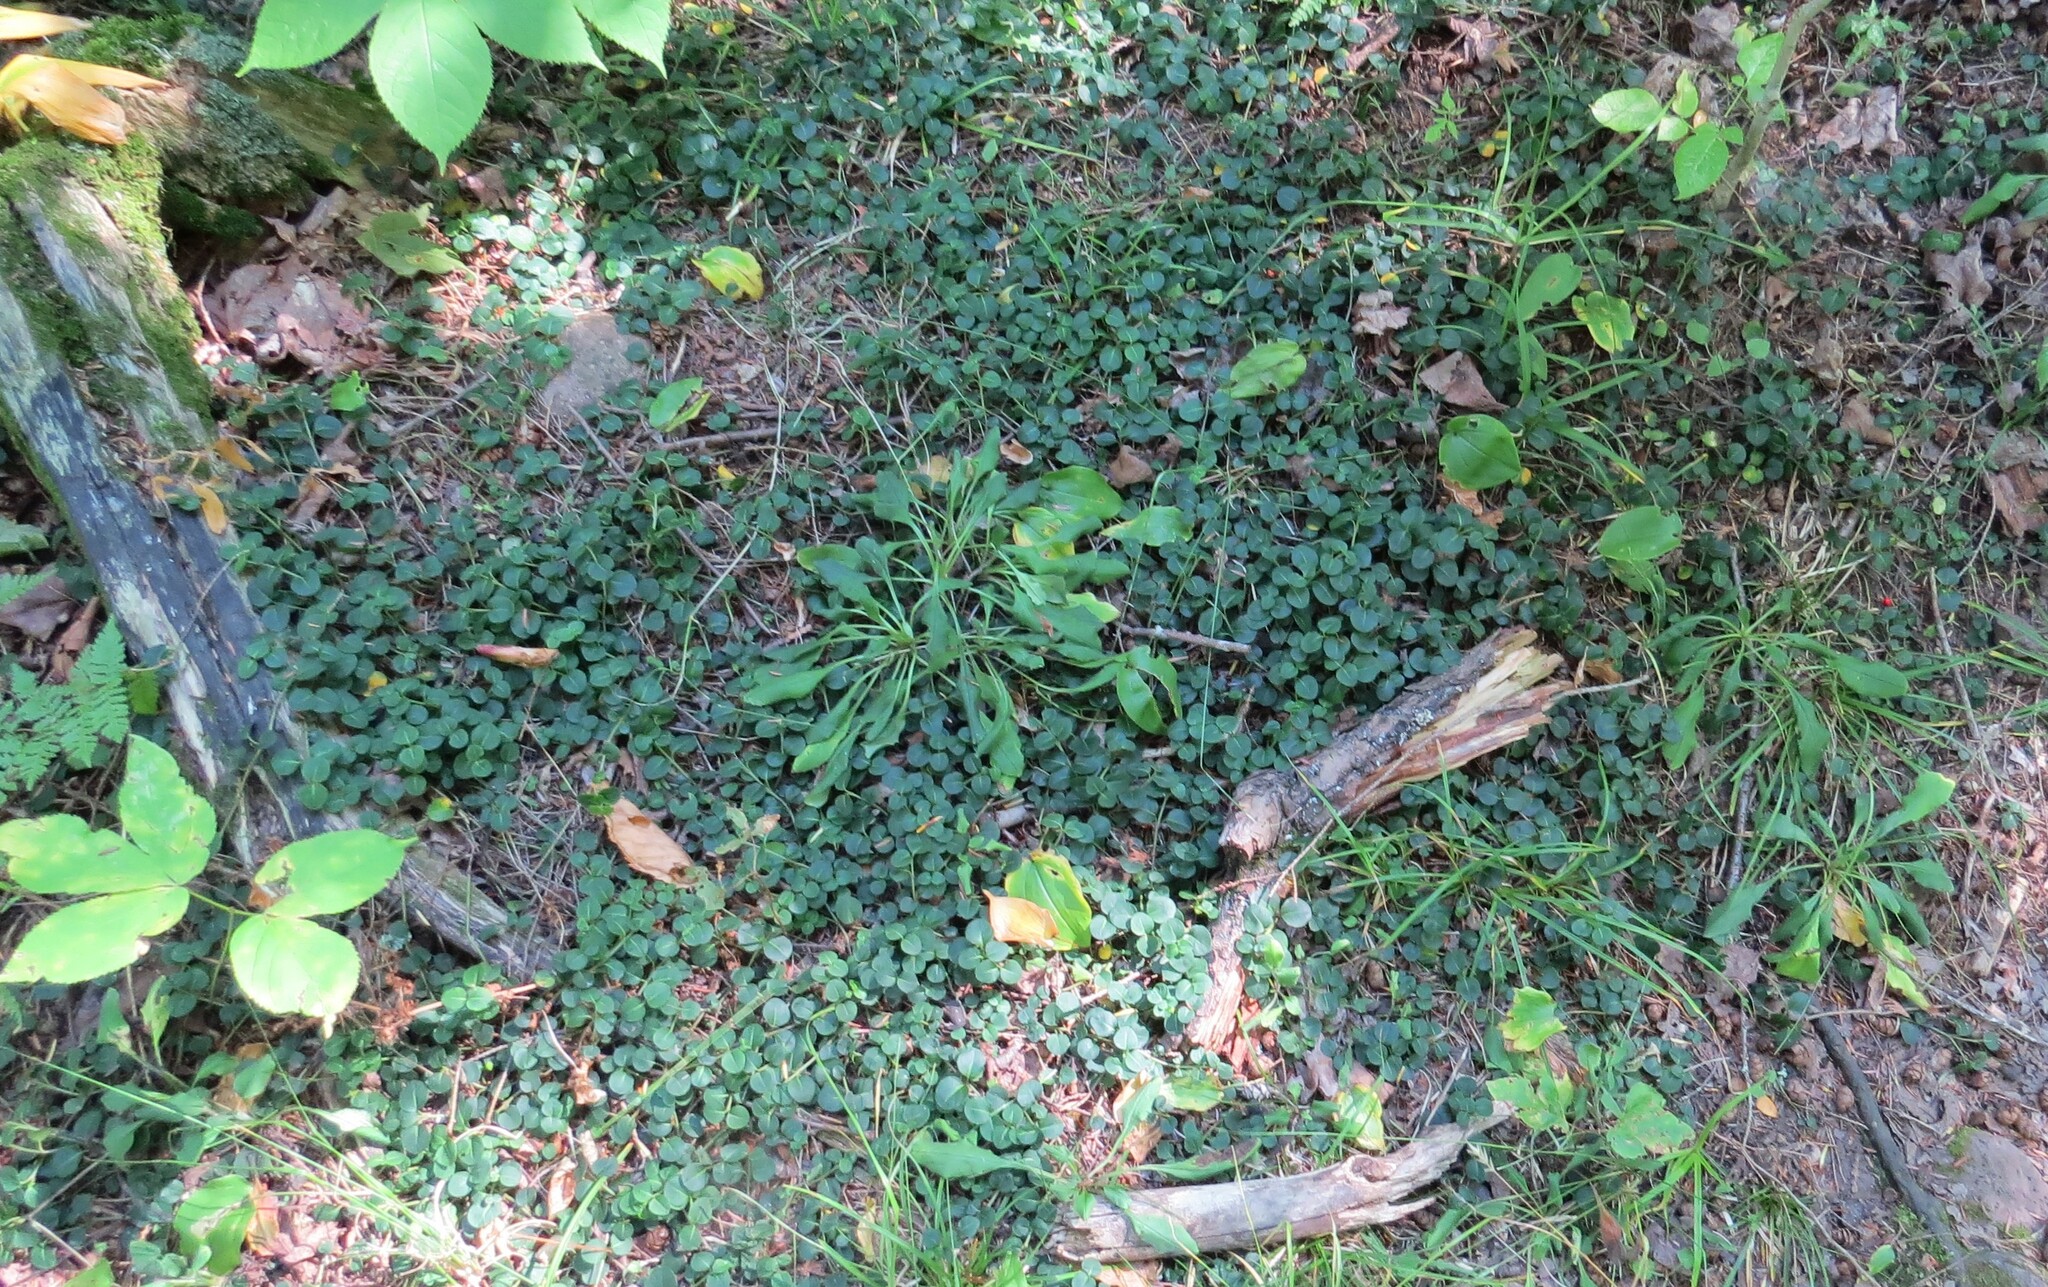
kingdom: Plantae
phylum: Tracheophyta
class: Magnoliopsida
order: Gentianales
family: Rubiaceae
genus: Mitchella
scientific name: Mitchella repens
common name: Partridge-berry
